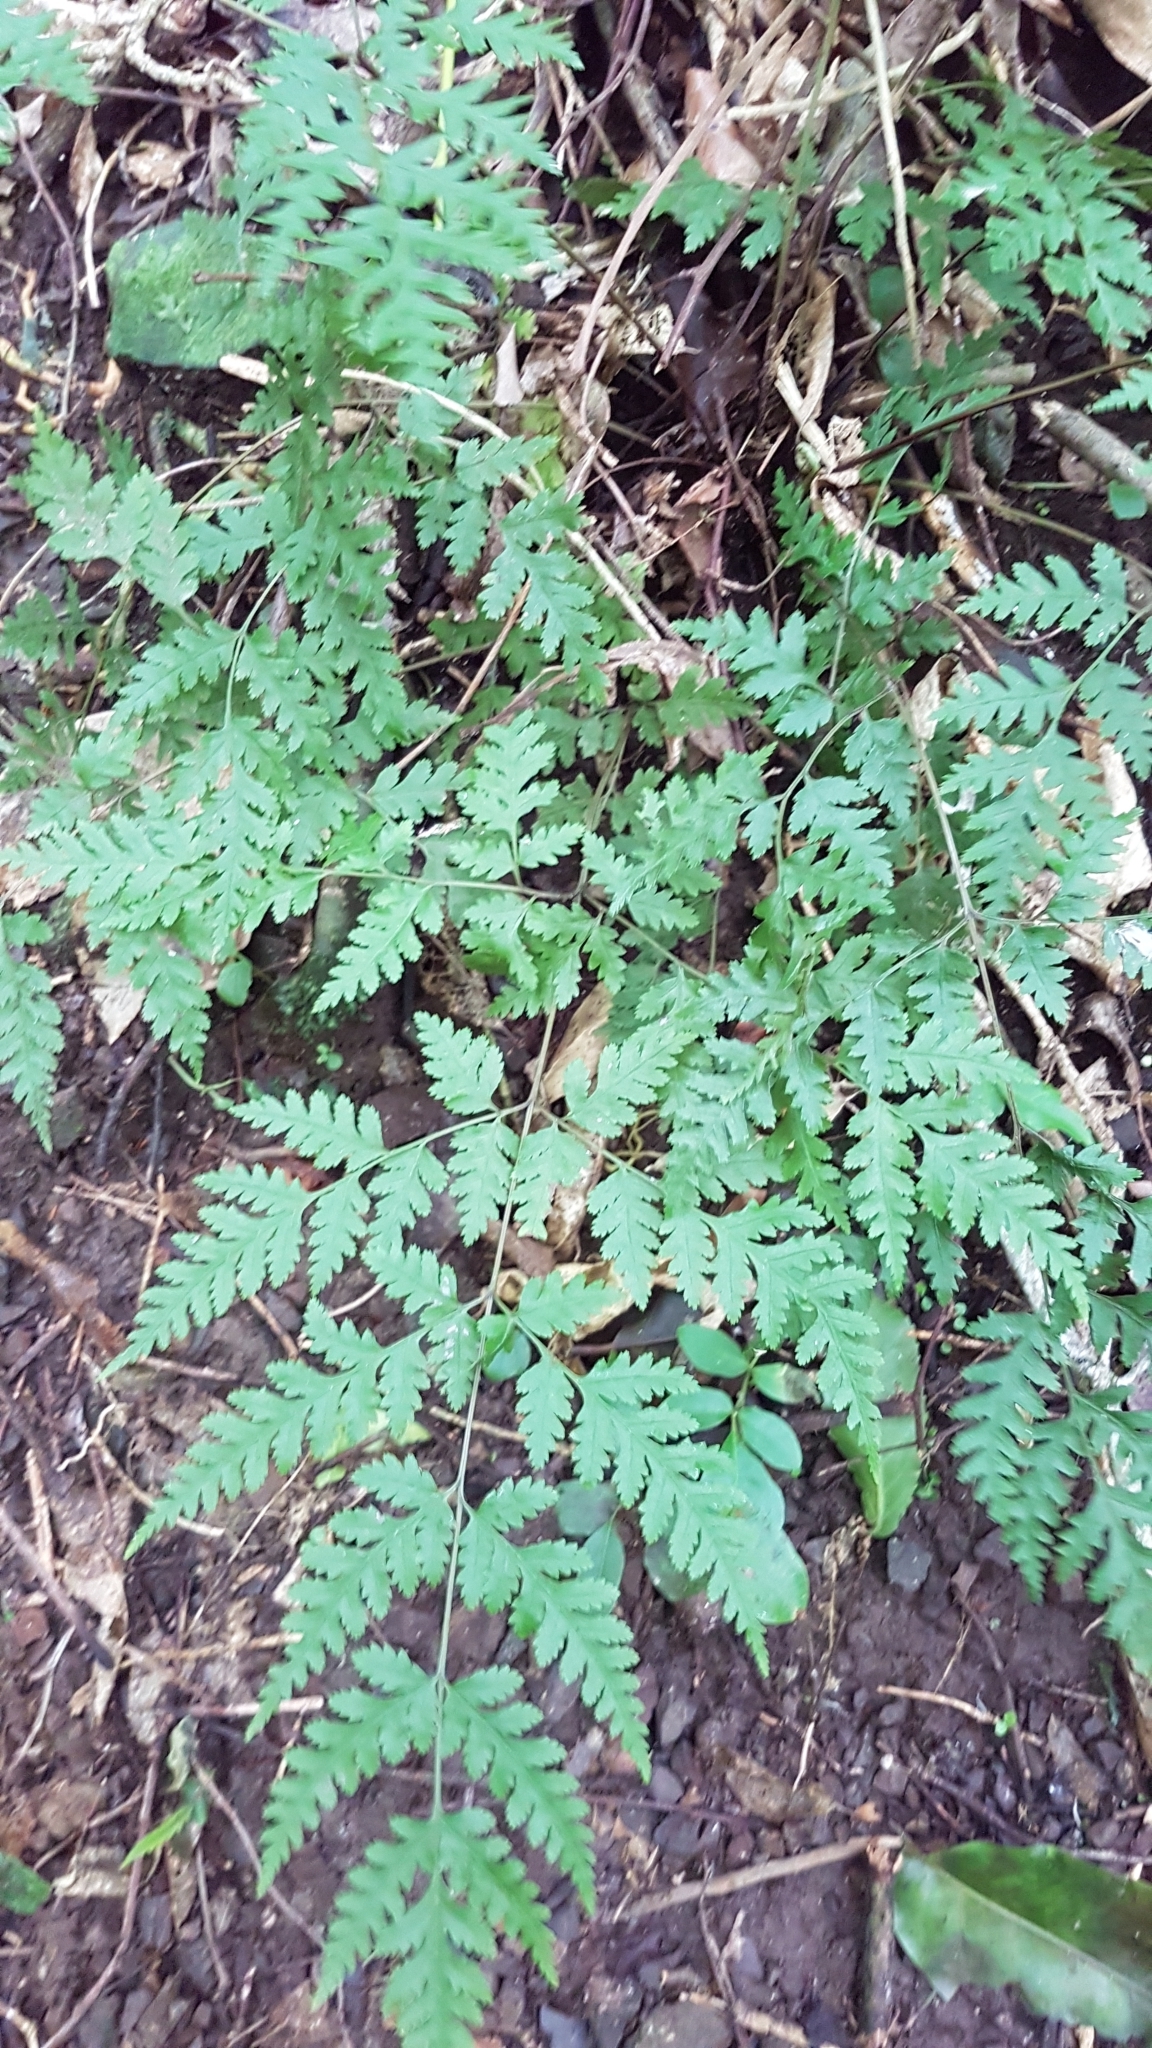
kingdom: Plantae
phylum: Tracheophyta
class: Polypodiopsida
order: Polypodiales
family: Pteridaceae
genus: Pteris
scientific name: Pteris macilenta
